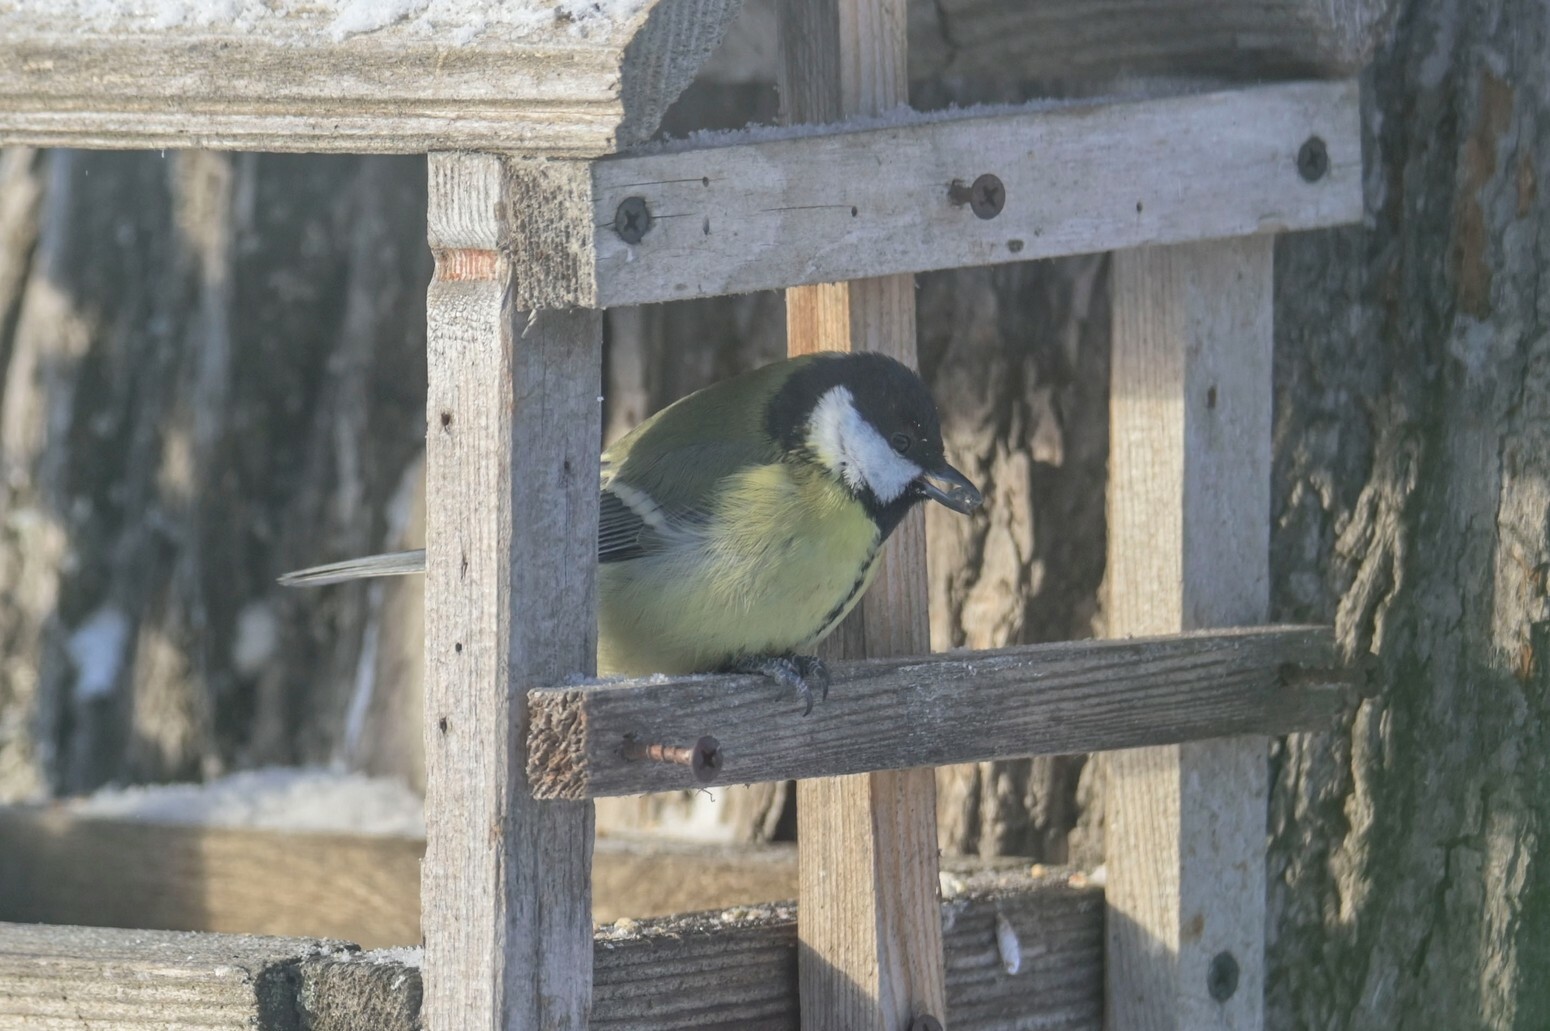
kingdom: Animalia
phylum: Chordata
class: Aves
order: Passeriformes
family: Paridae
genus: Parus
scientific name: Parus major
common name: Great tit
